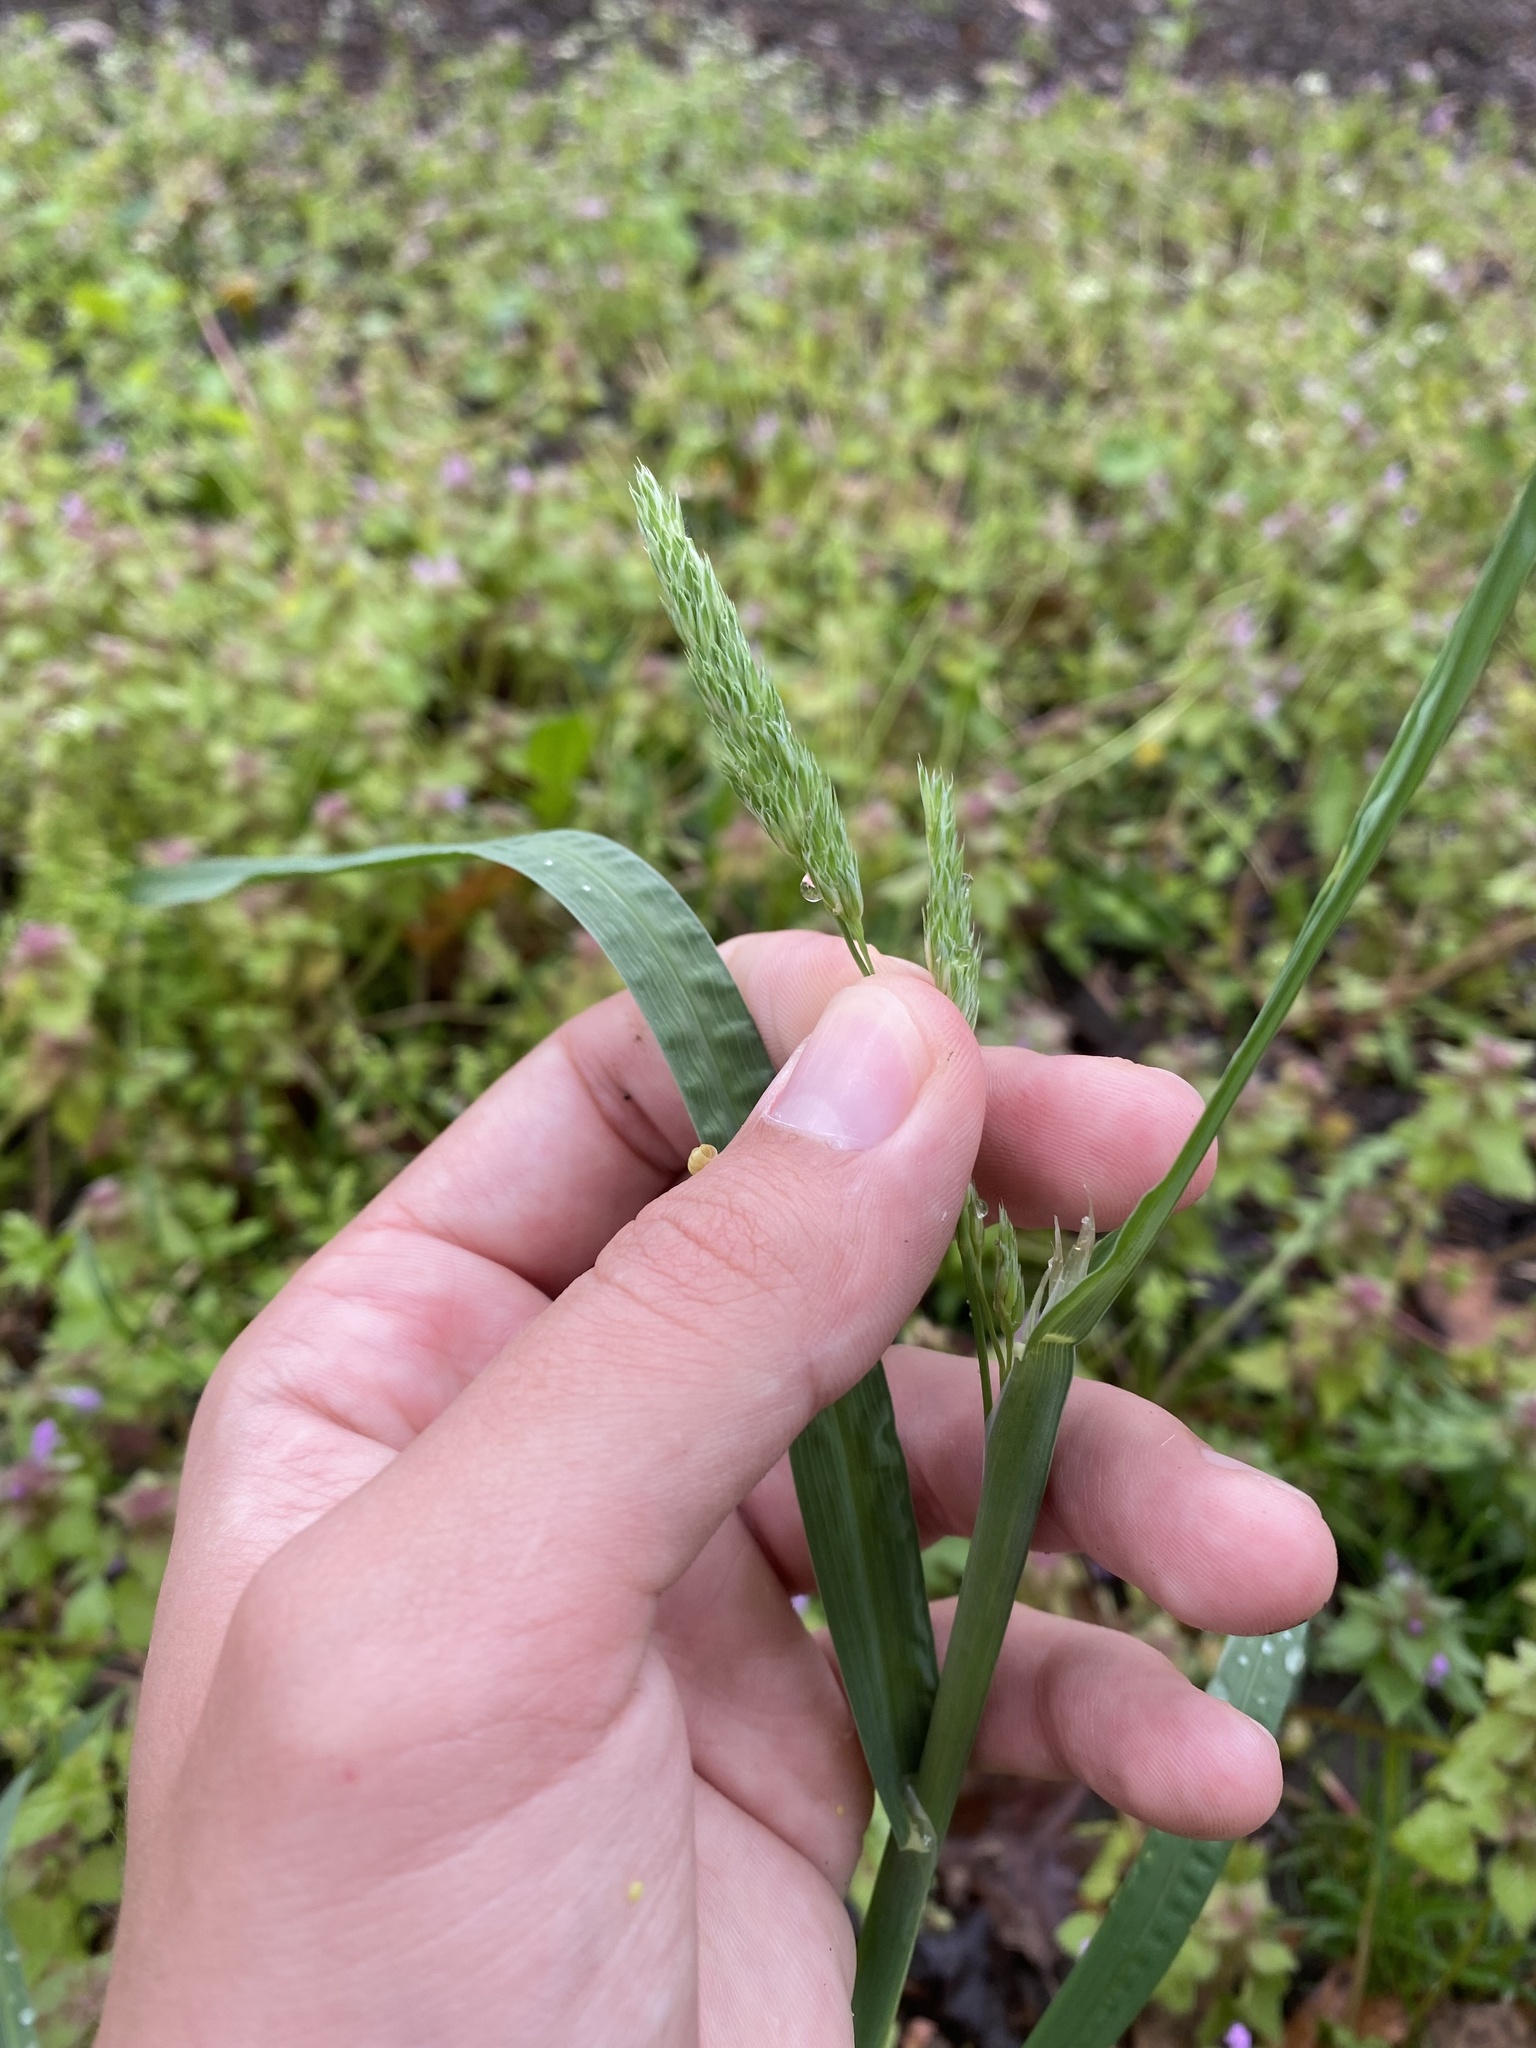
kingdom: Plantae
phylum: Tracheophyta
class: Liliopsida
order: Poales
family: Poaceae
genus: Dactylis
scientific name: Dactylis glomerata
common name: Orchardgrass
